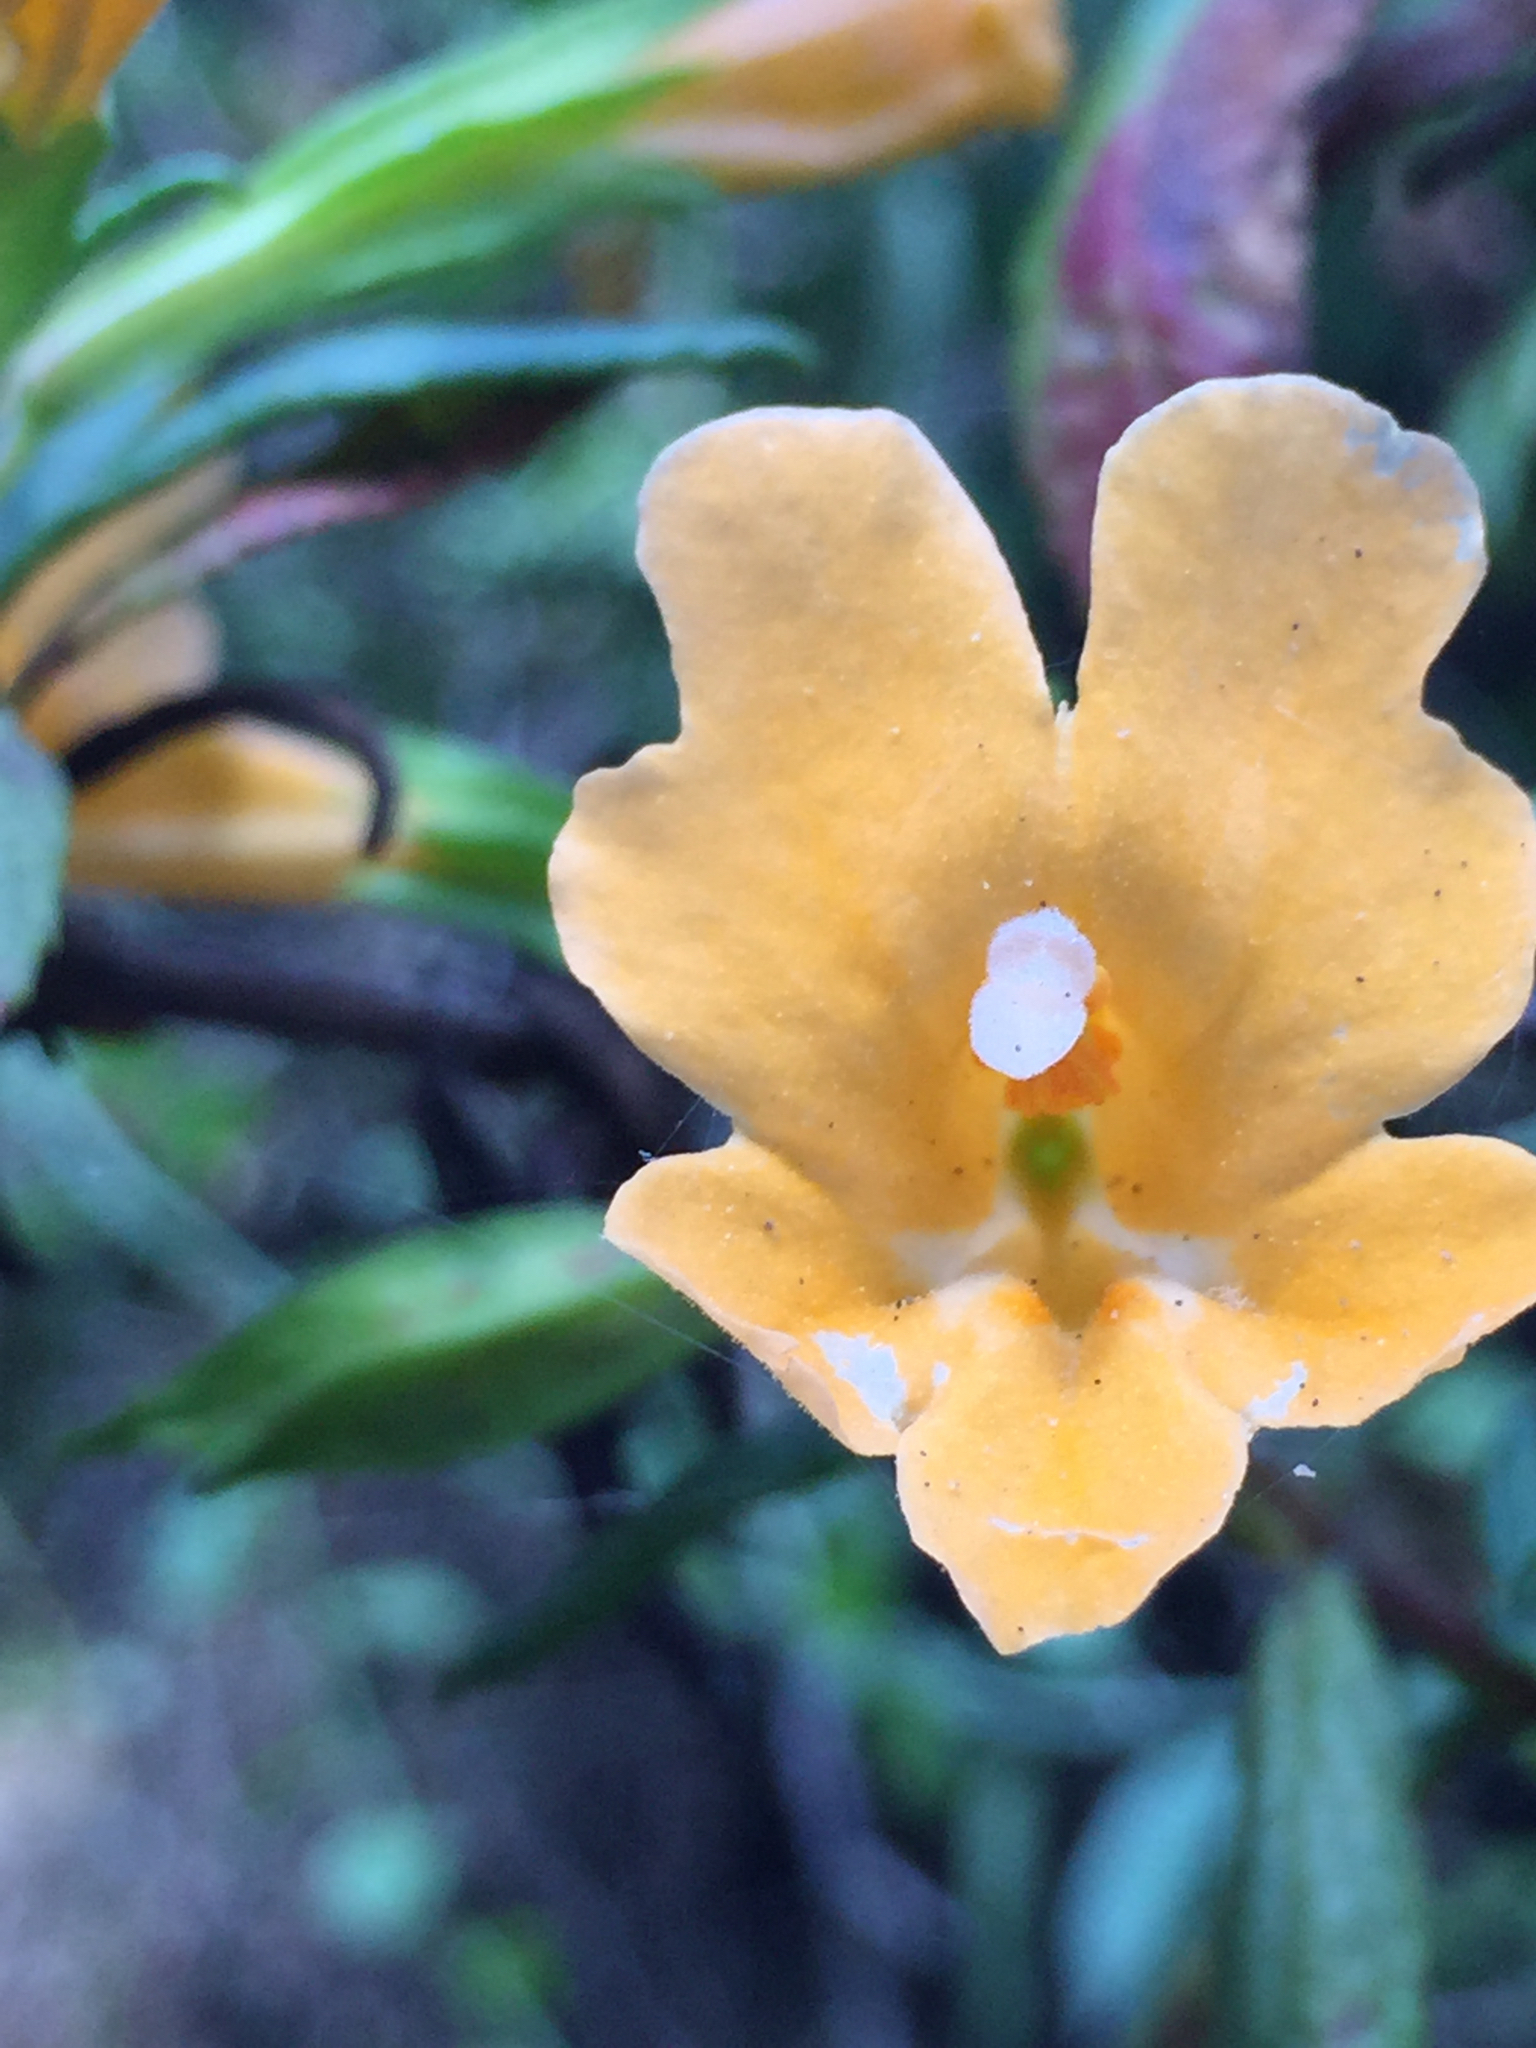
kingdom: Plantae
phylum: Tracheophyta
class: Magnoliopsida
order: Lamiales
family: Phrymaceae
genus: Diplacus
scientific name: Diplacus aurantiacus
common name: Bush monkey-flower
